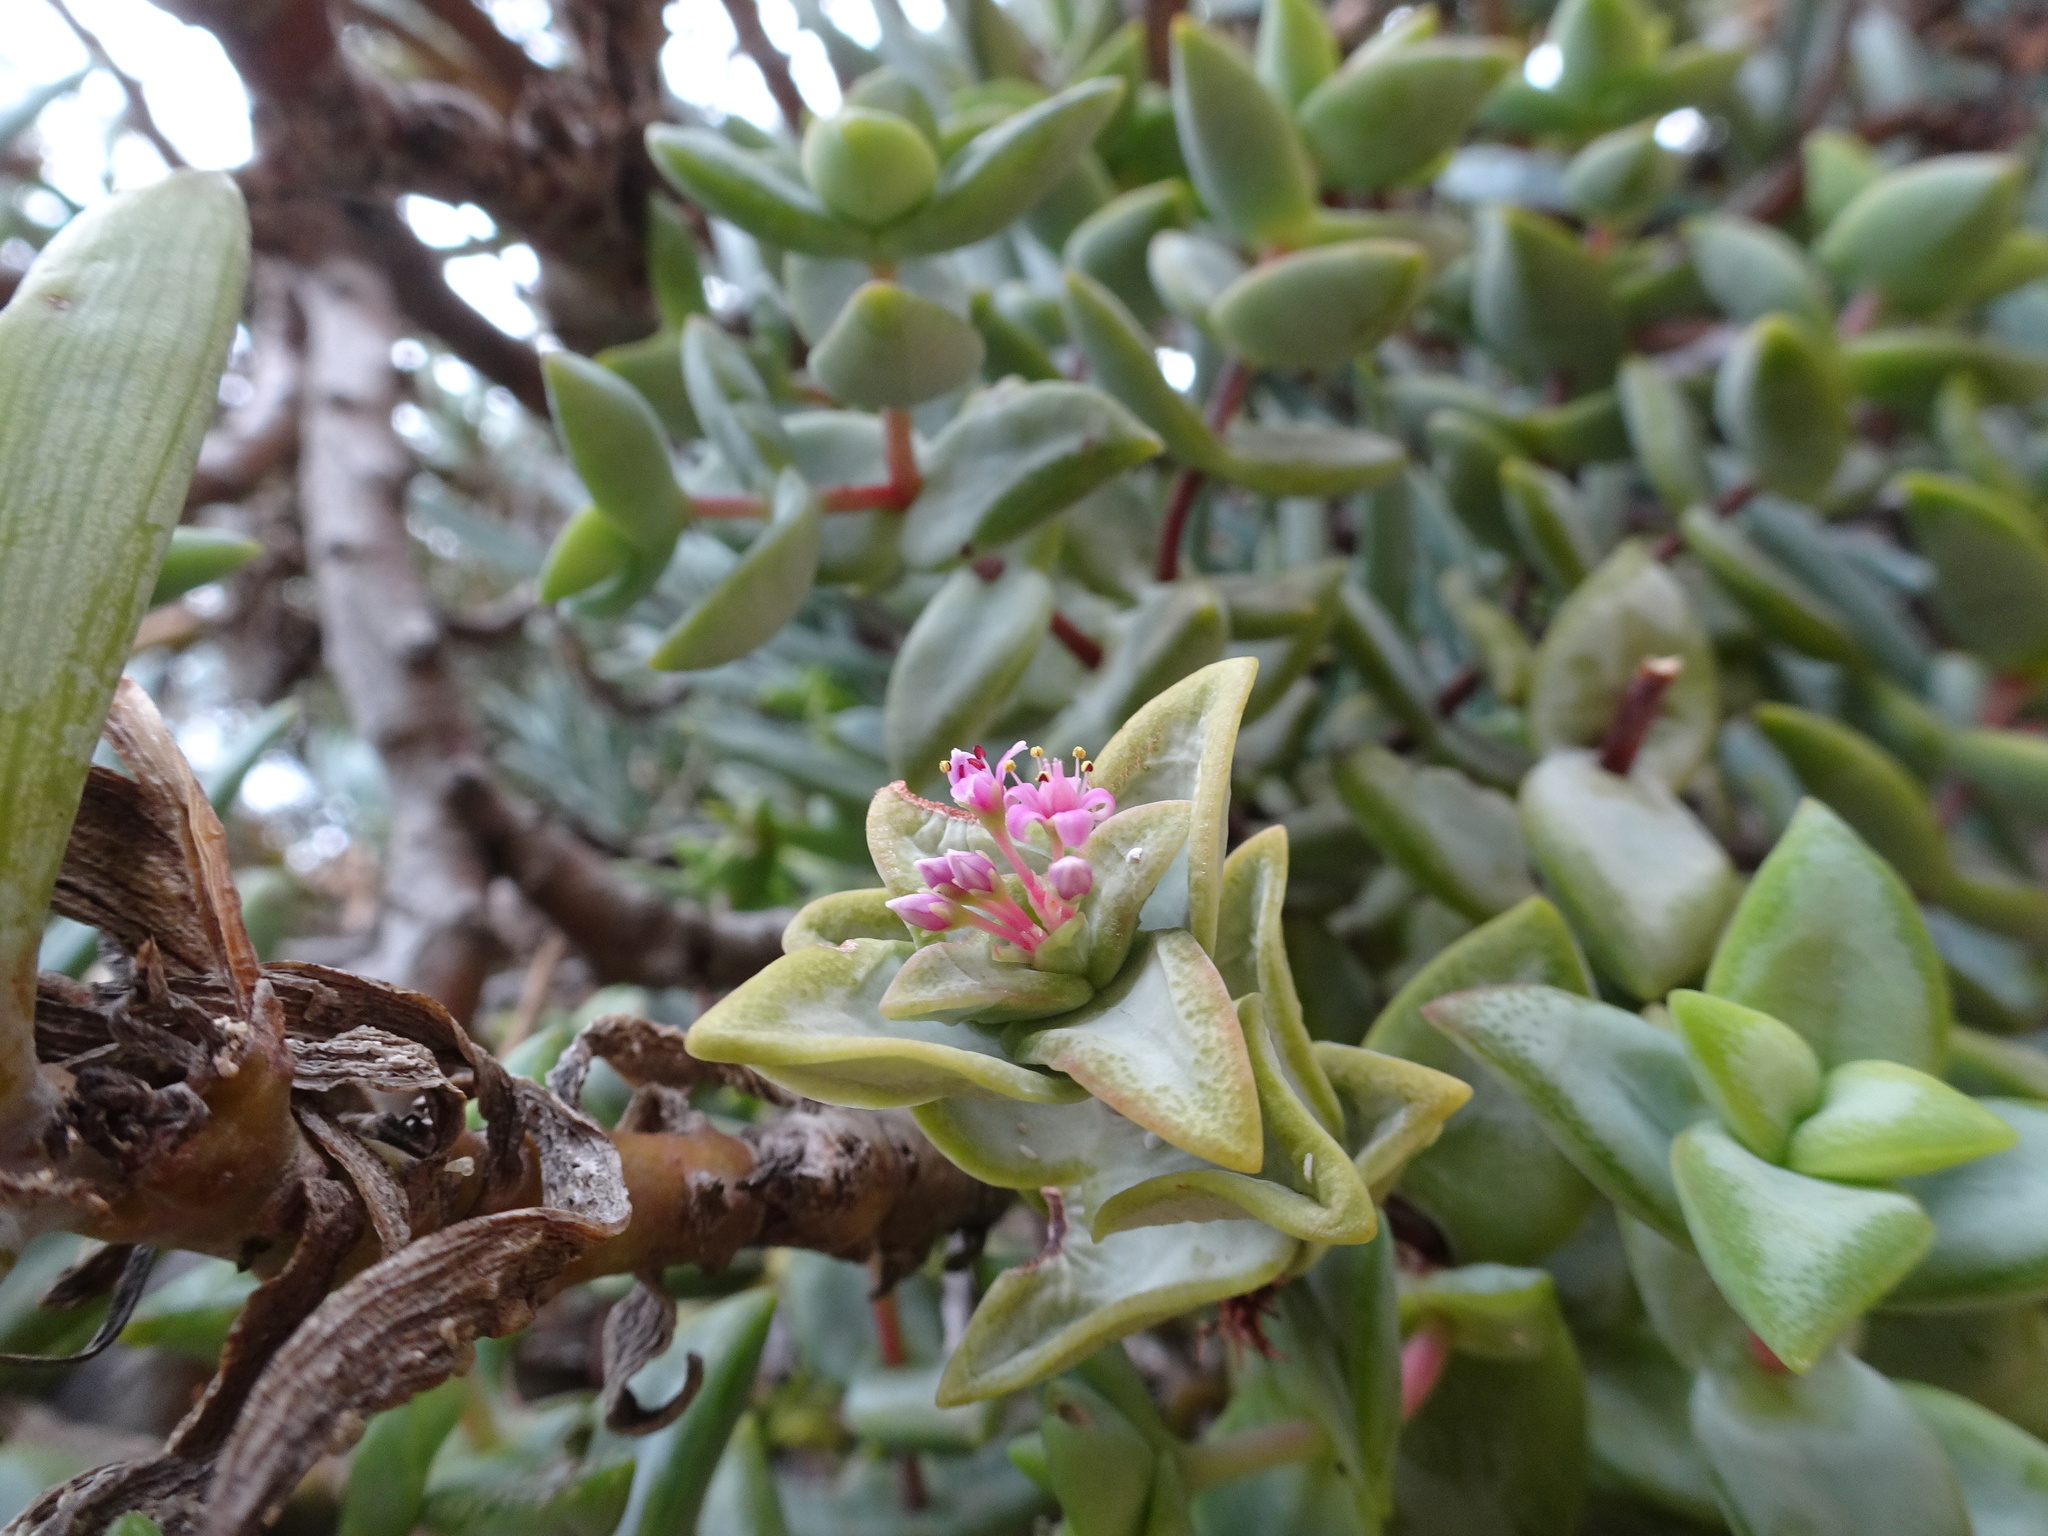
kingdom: Plantae
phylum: Tracheophyta
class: Magnoliopsida
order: Saxifragales
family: Crassulaceae
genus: Crassula
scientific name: Crassula rupestris
